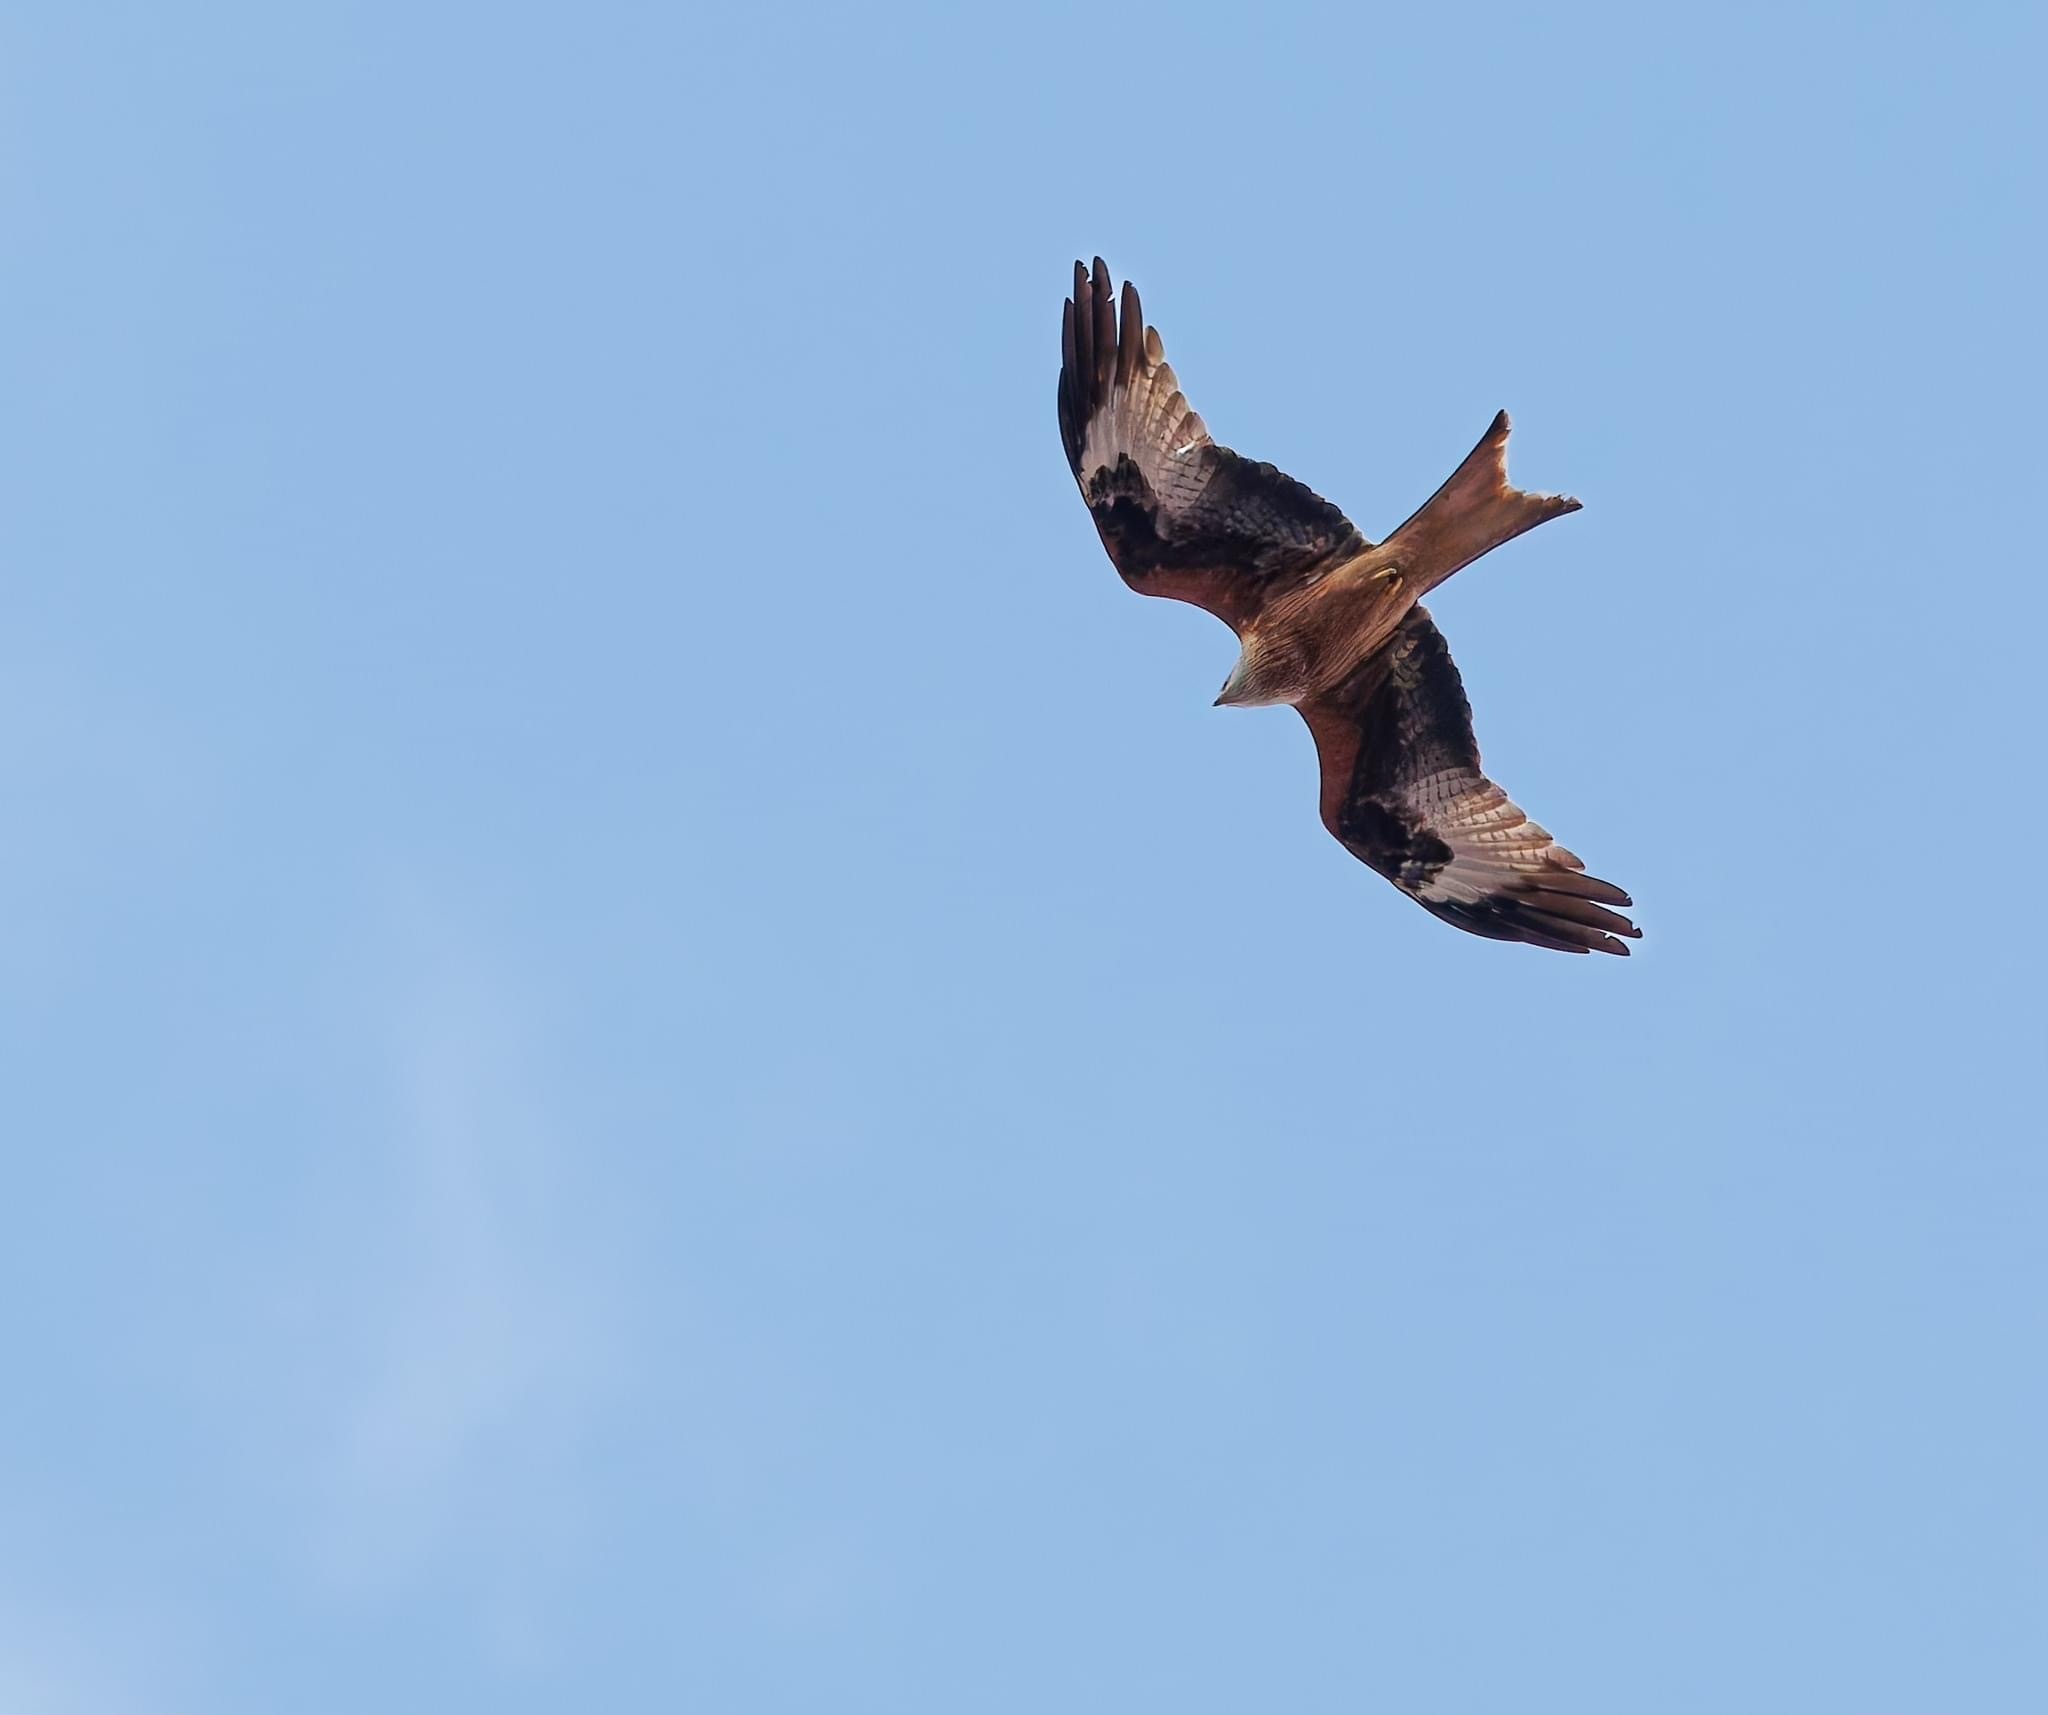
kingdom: Animalia
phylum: Chordata
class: Aves
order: Accipitriformes
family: Accipitridae
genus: Milvus
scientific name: Milvus milvus
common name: Red kite
